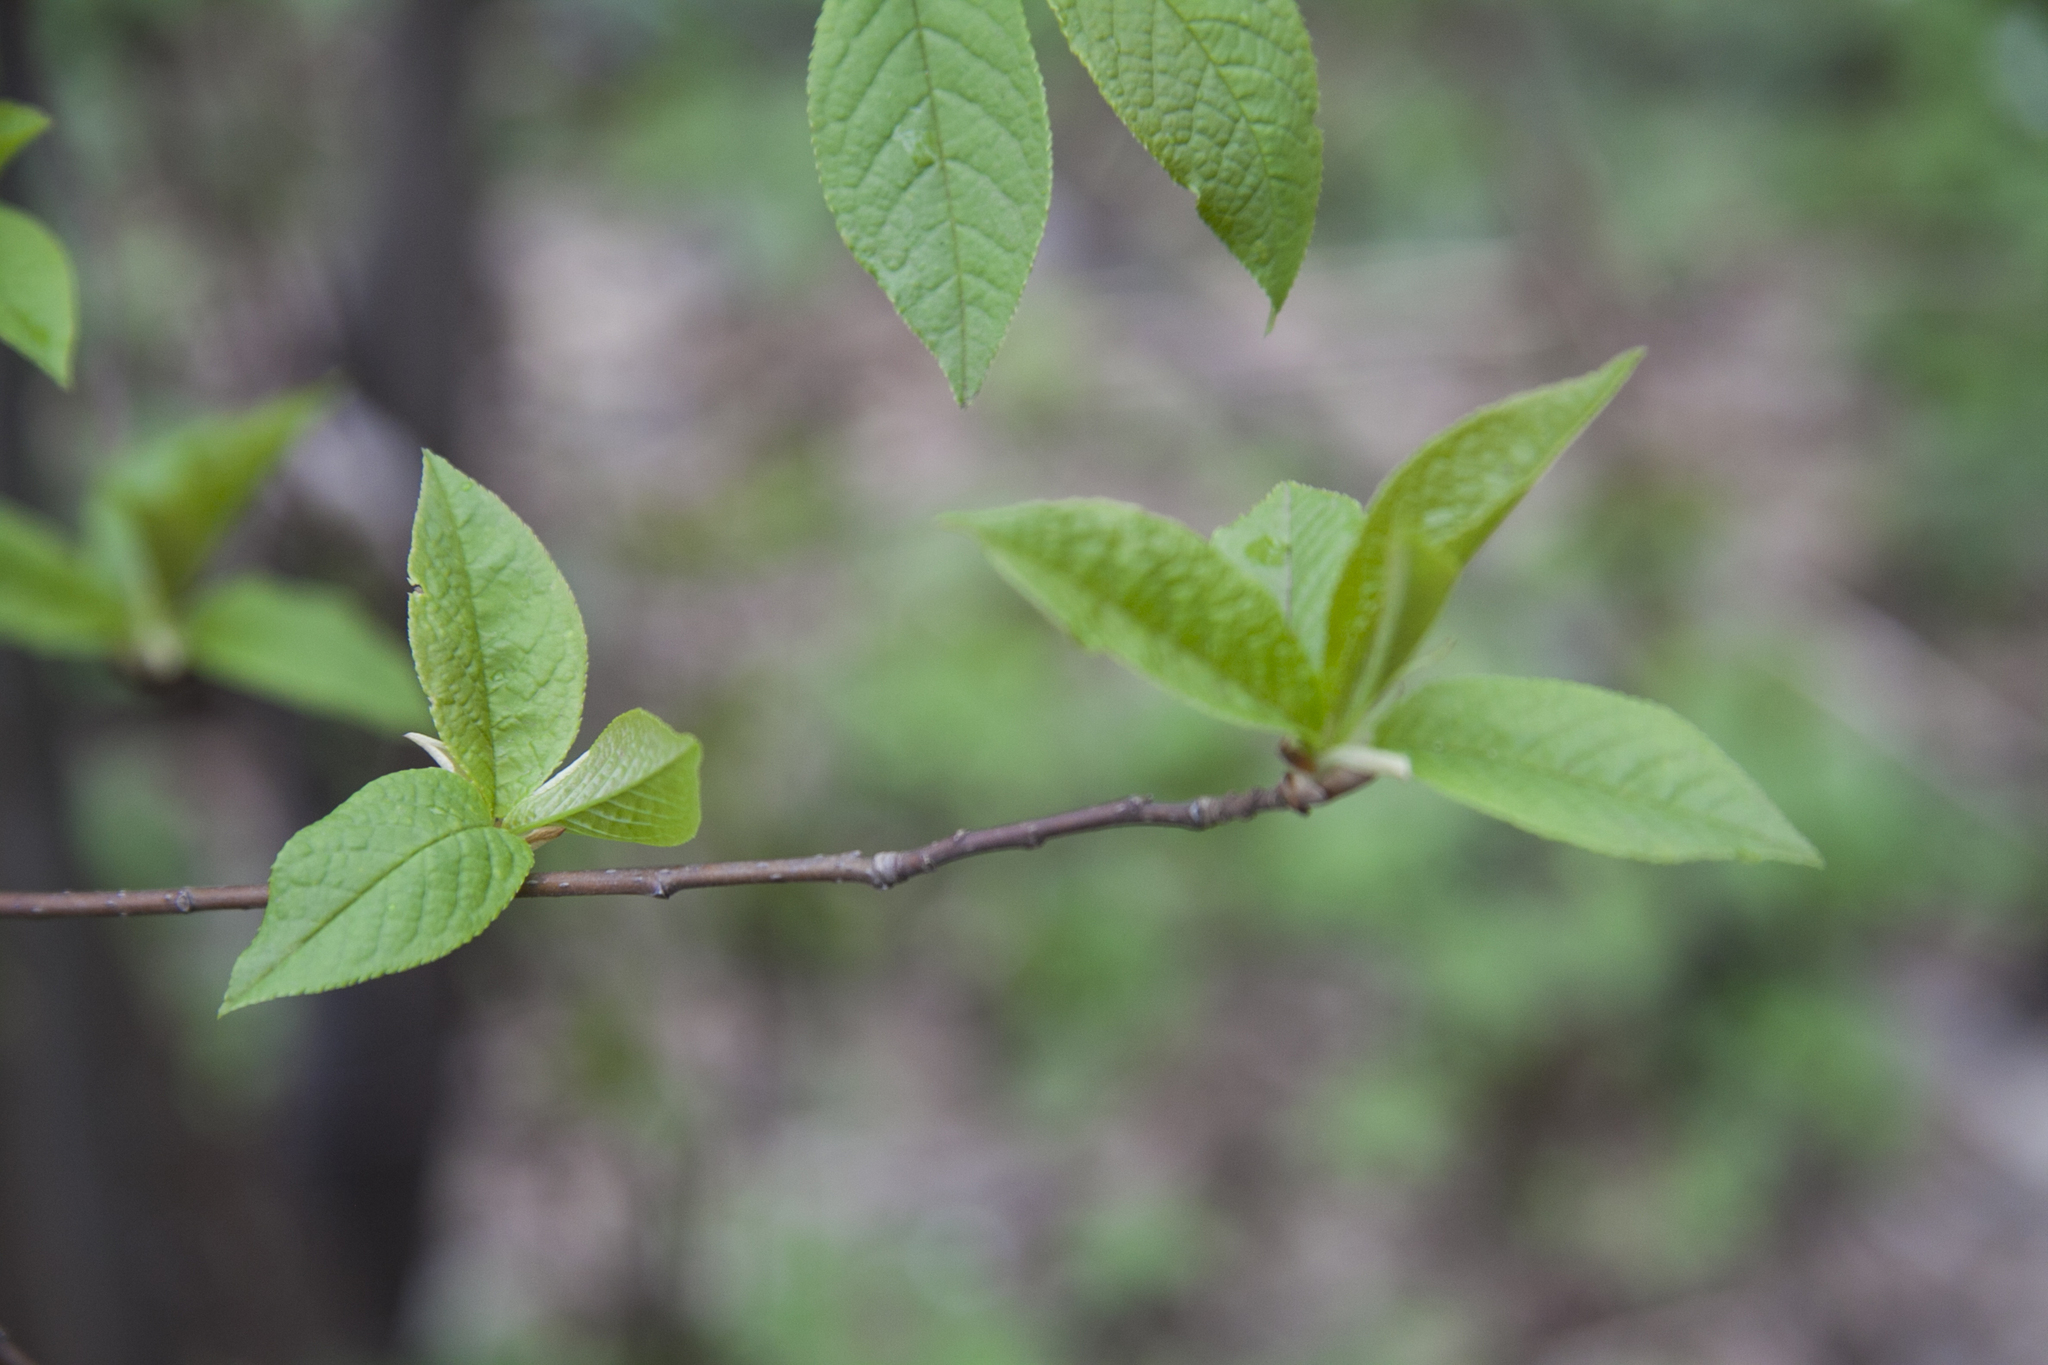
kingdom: Plantae
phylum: Tracheophyta
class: Magnoliopsida
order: Rosales
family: Rosaceae
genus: Prunus
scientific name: Prunus padus
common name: Bird cherry
